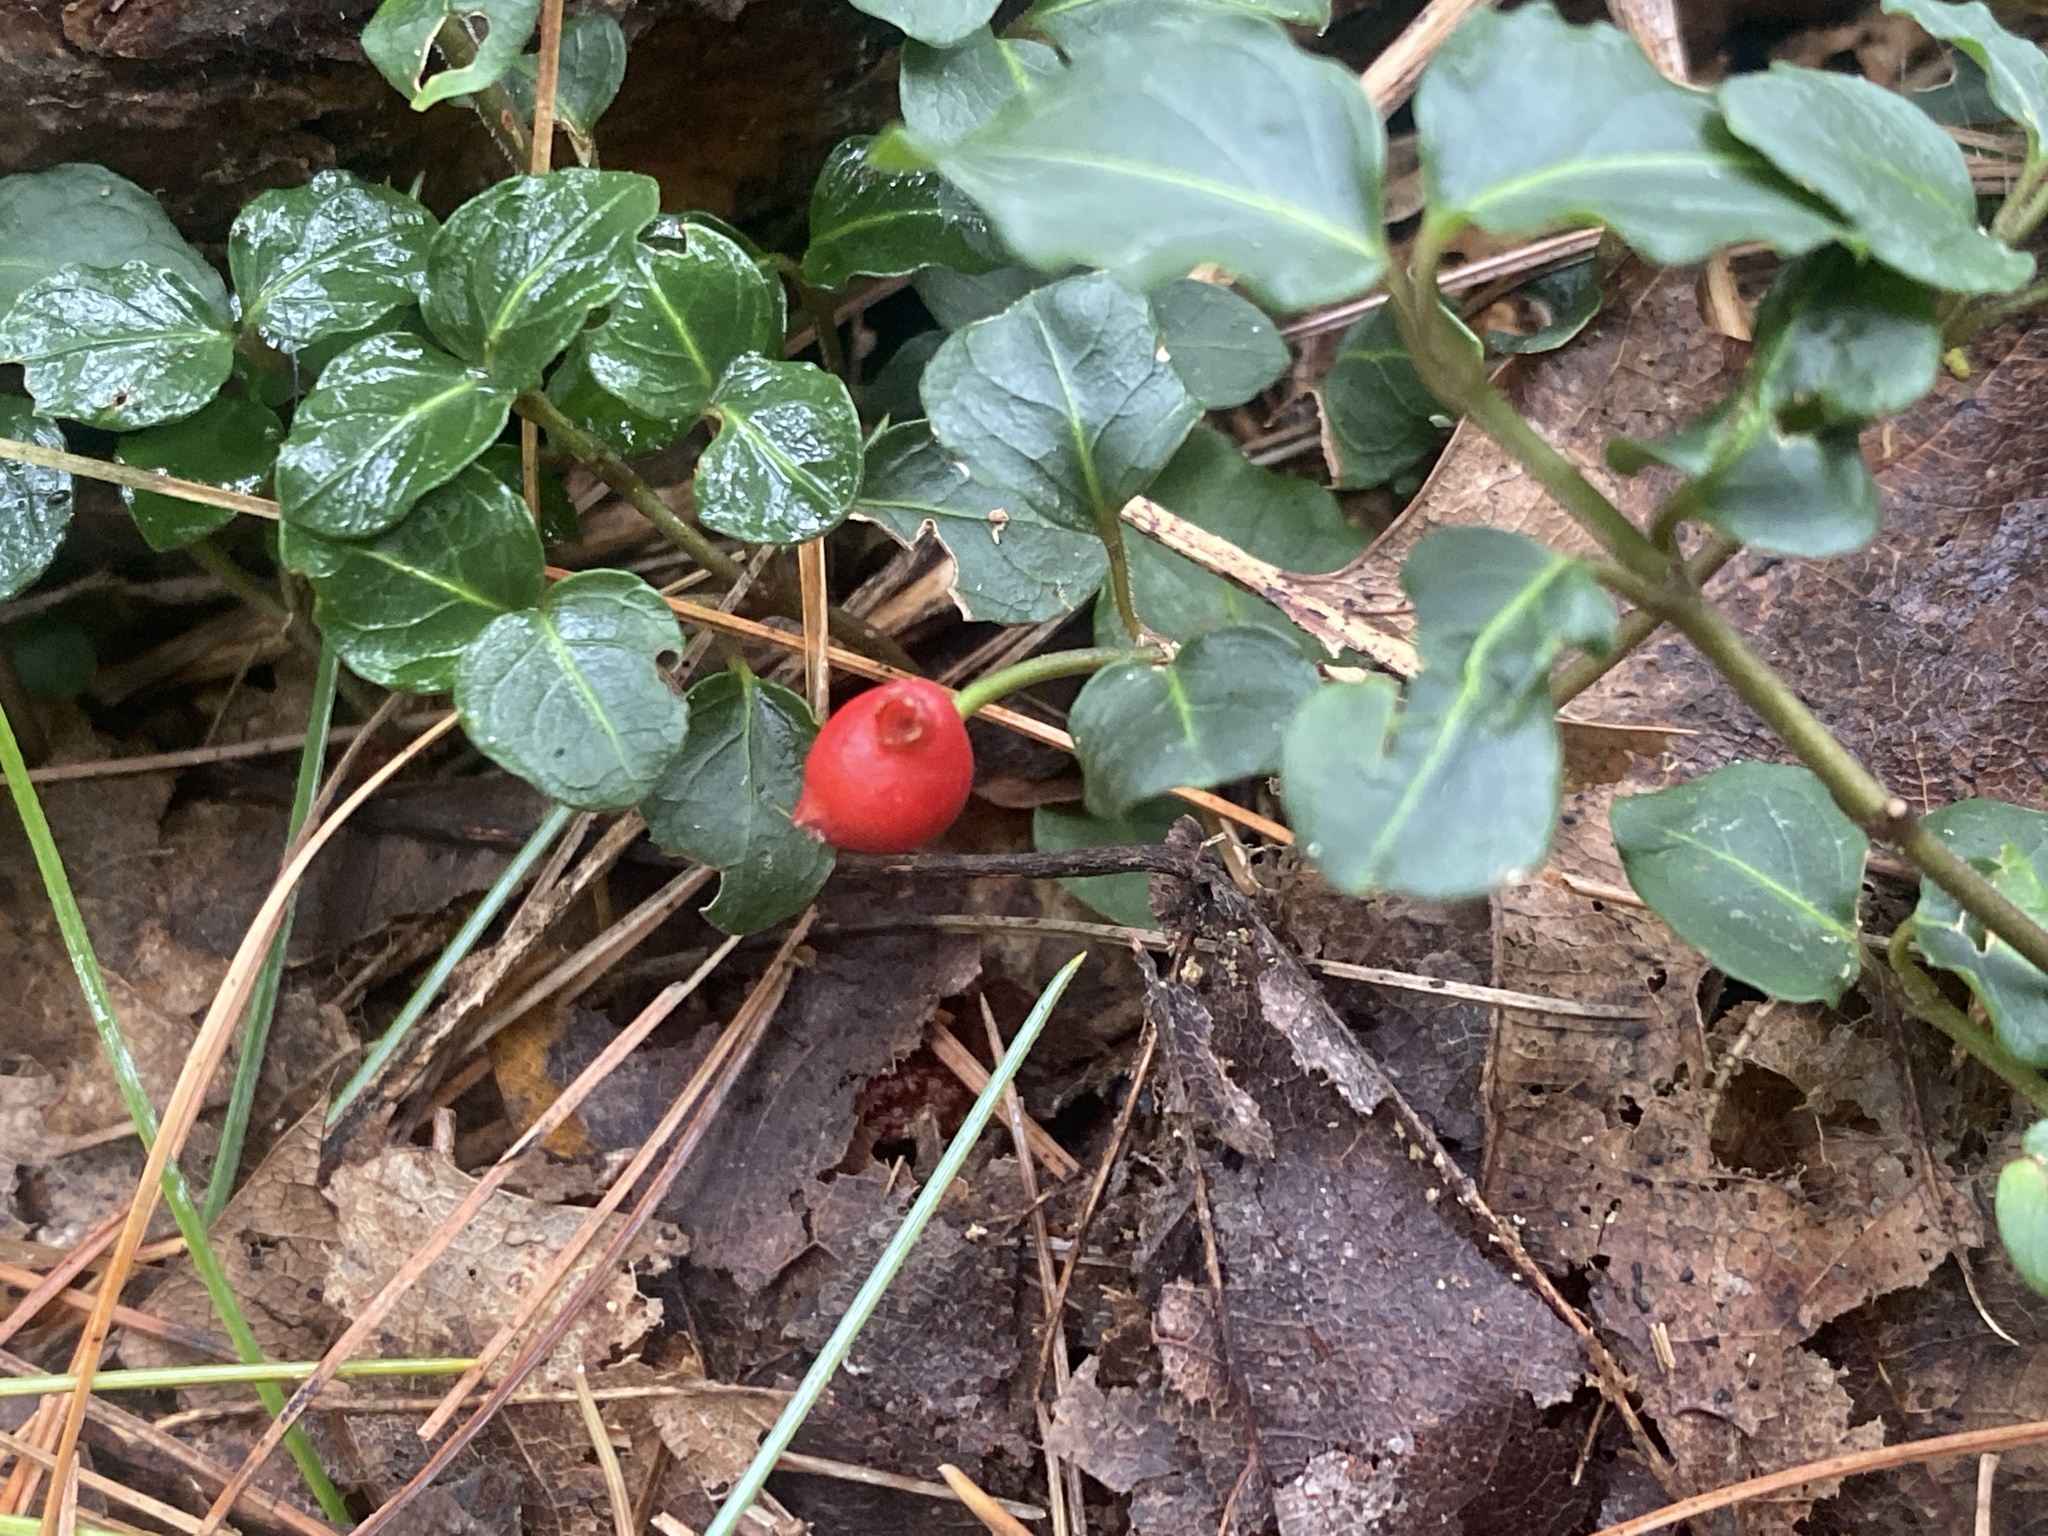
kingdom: Plantae
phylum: Tracheophyta
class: Magnoliopsida
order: Gentianales
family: Rubiaceae
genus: Mitchella
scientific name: Mitchella repens
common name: Partridge-berry
